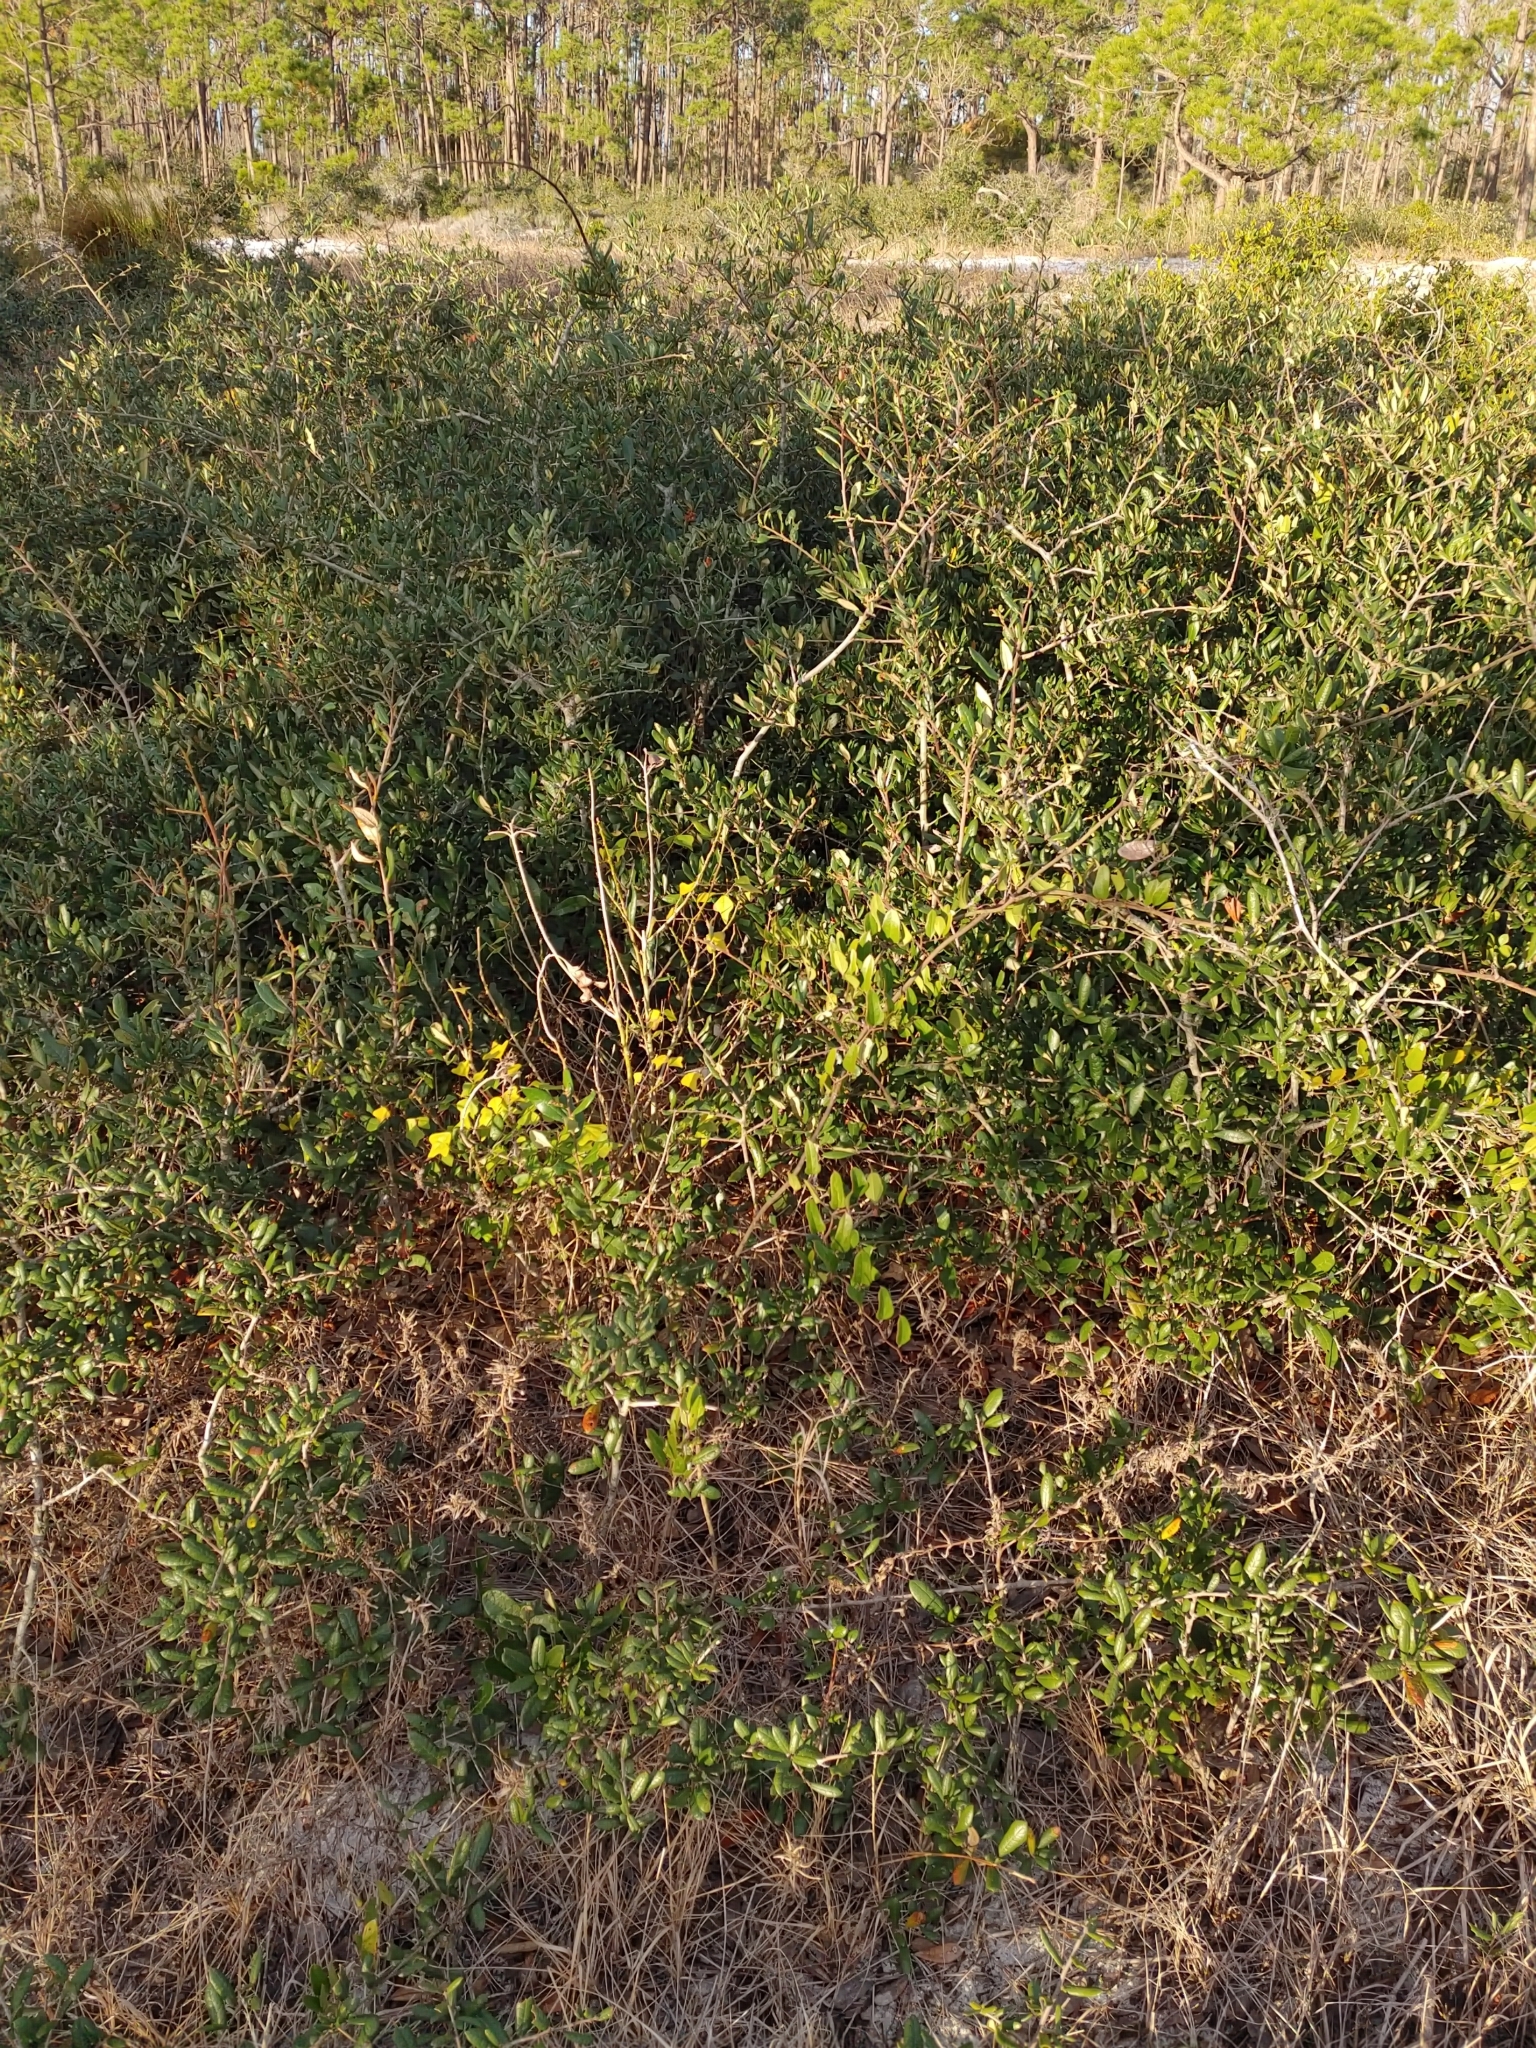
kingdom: Plantae
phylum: Tracheophyta
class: Magnoliopsida
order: Fagales
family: Fagaceae
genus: Quercus
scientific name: Quercus geminata
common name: Sand live oak
